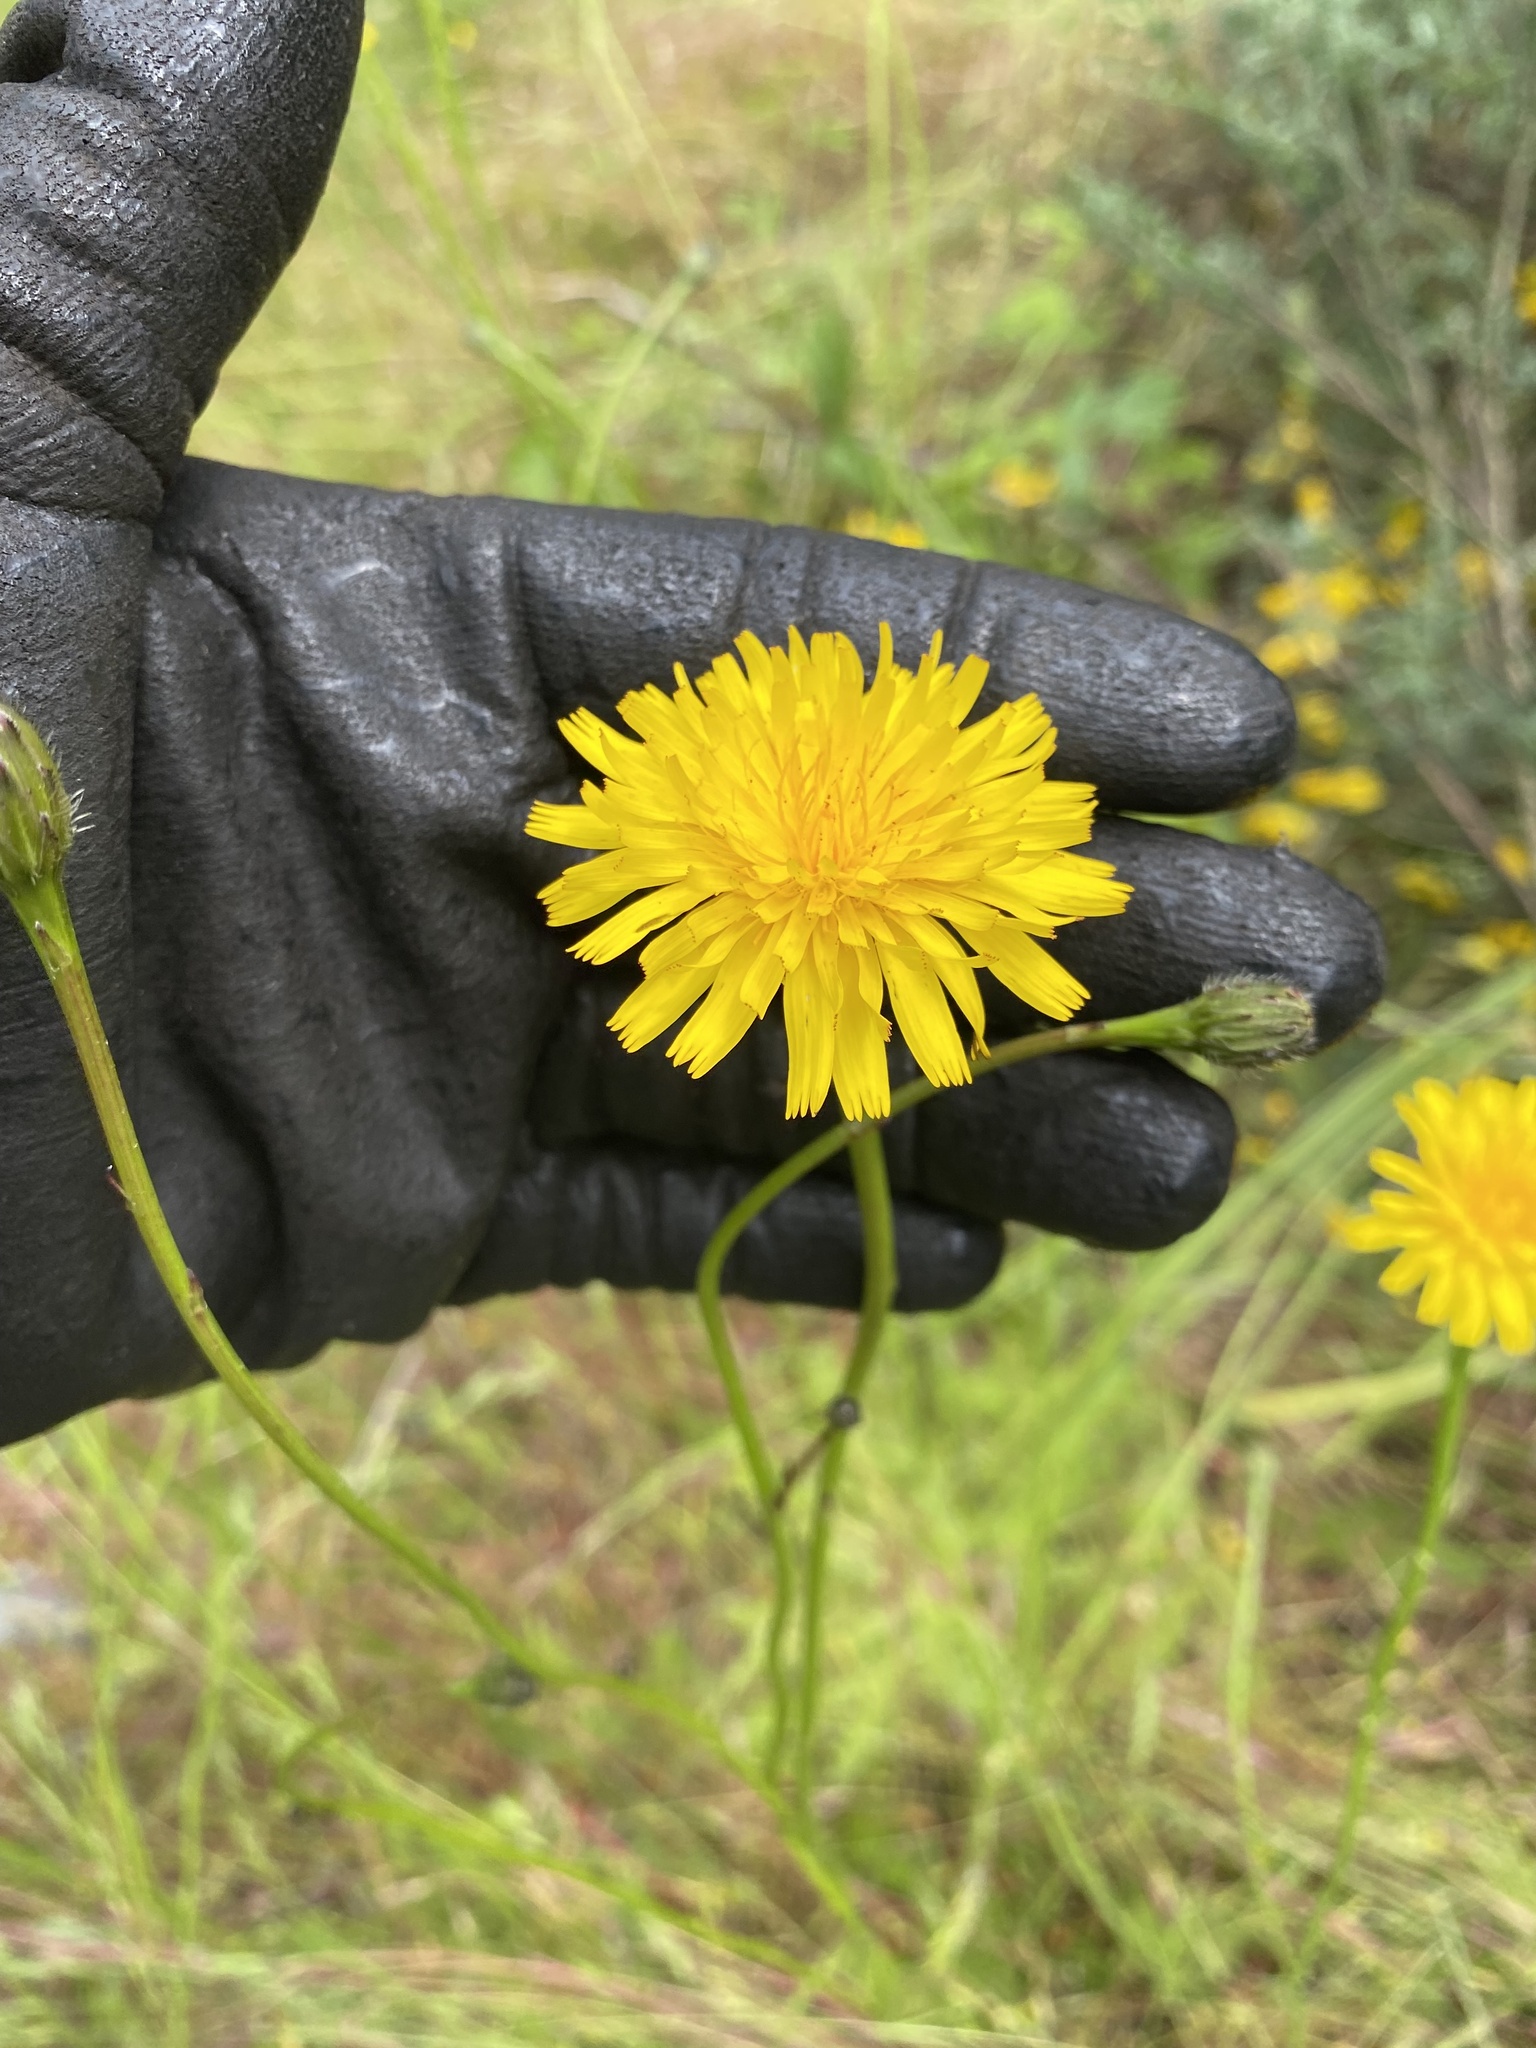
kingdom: Plantae
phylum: Tracheophyta
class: Magnoliopsida
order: Asterales
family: Asteraceae
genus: Hypochaeris
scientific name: Hypochaeris radicata
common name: Flatweed
